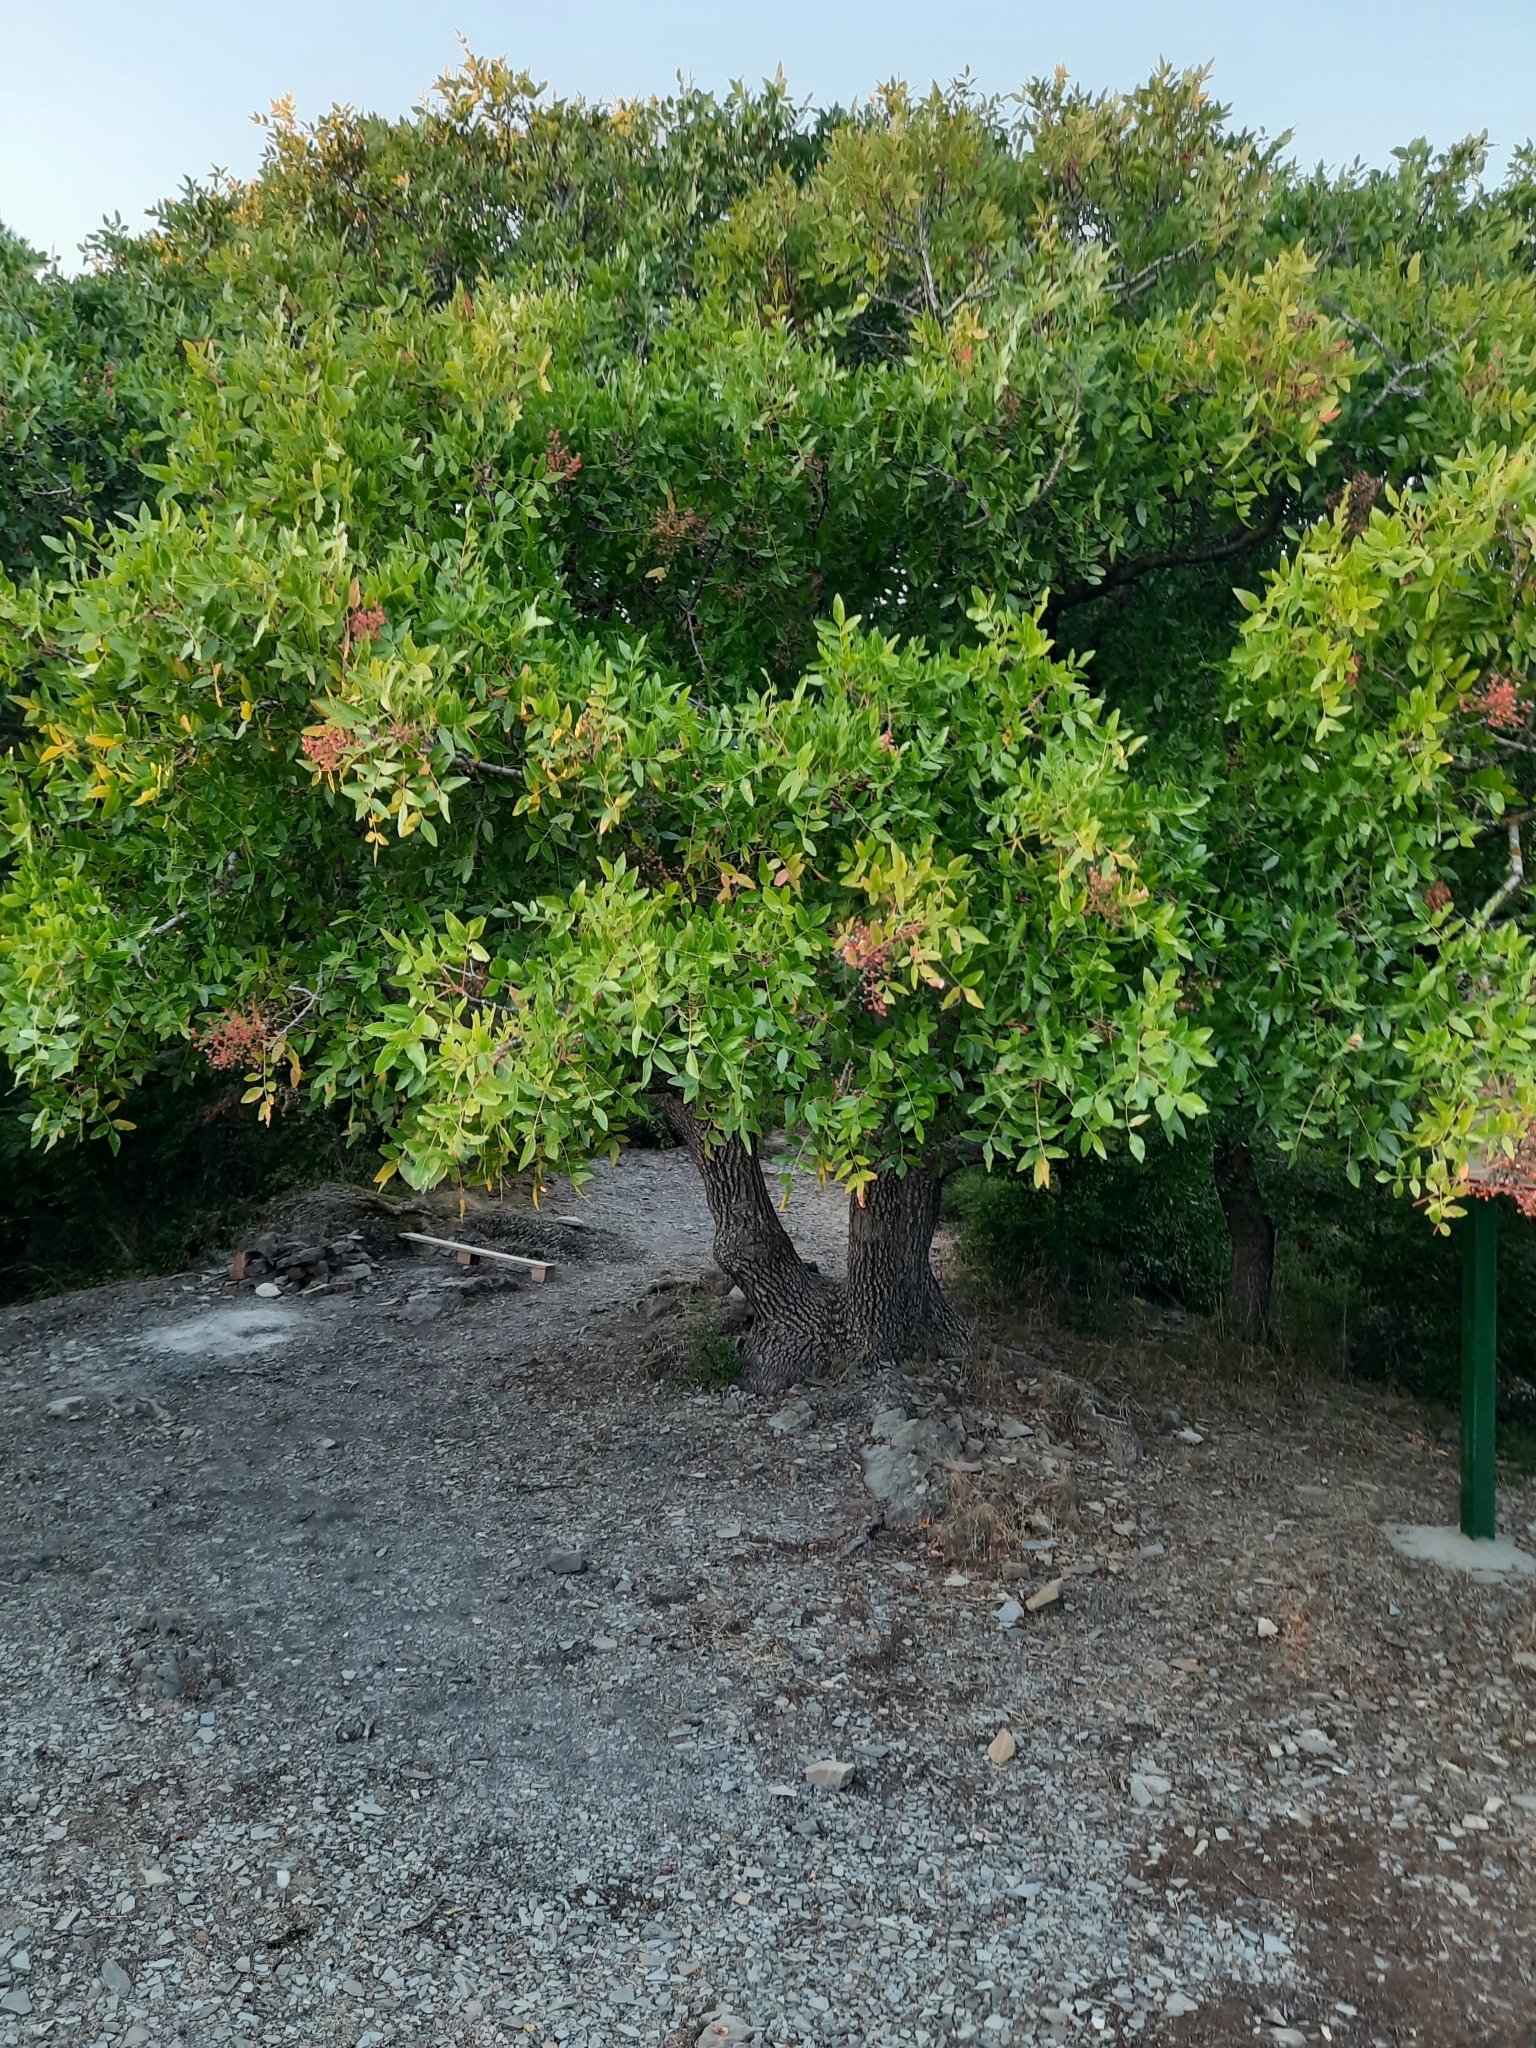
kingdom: Plantae
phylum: Tracheophyta
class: Magnoliopsida
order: Sapindales
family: Anacardiaceae
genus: Pistacia
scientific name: Pistacia atlantica
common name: Mt. atlas mastic tree
